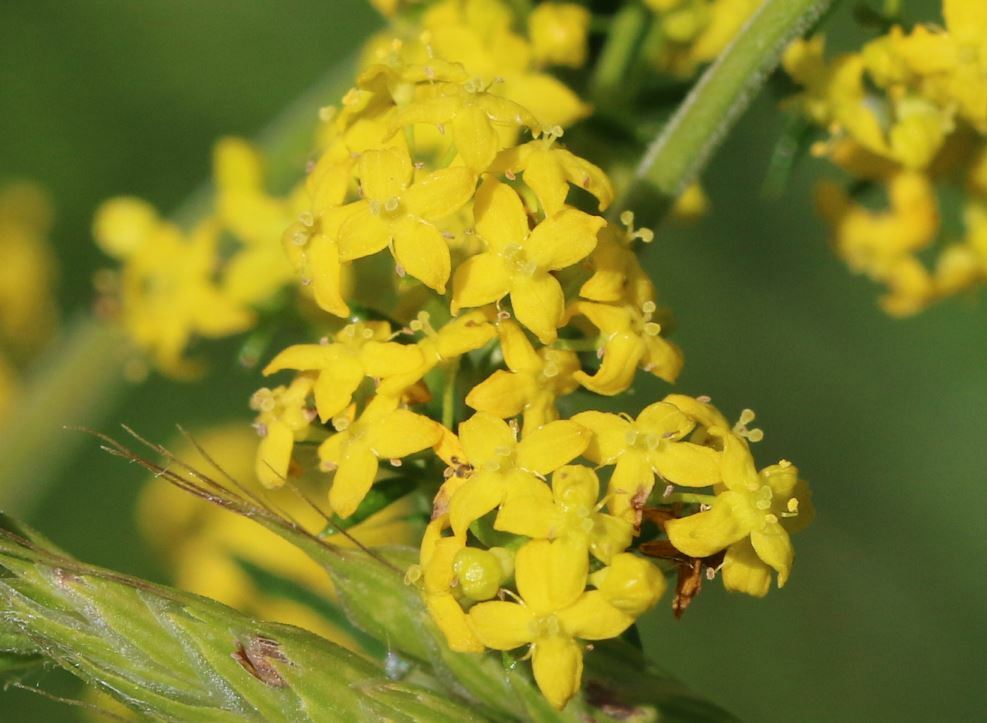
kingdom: Plantae
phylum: Tracheophyta
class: Magnoliopsida
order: Gentianales
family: Rubiaceae
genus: Galium
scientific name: Galium verum
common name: Lady's bedstraw
